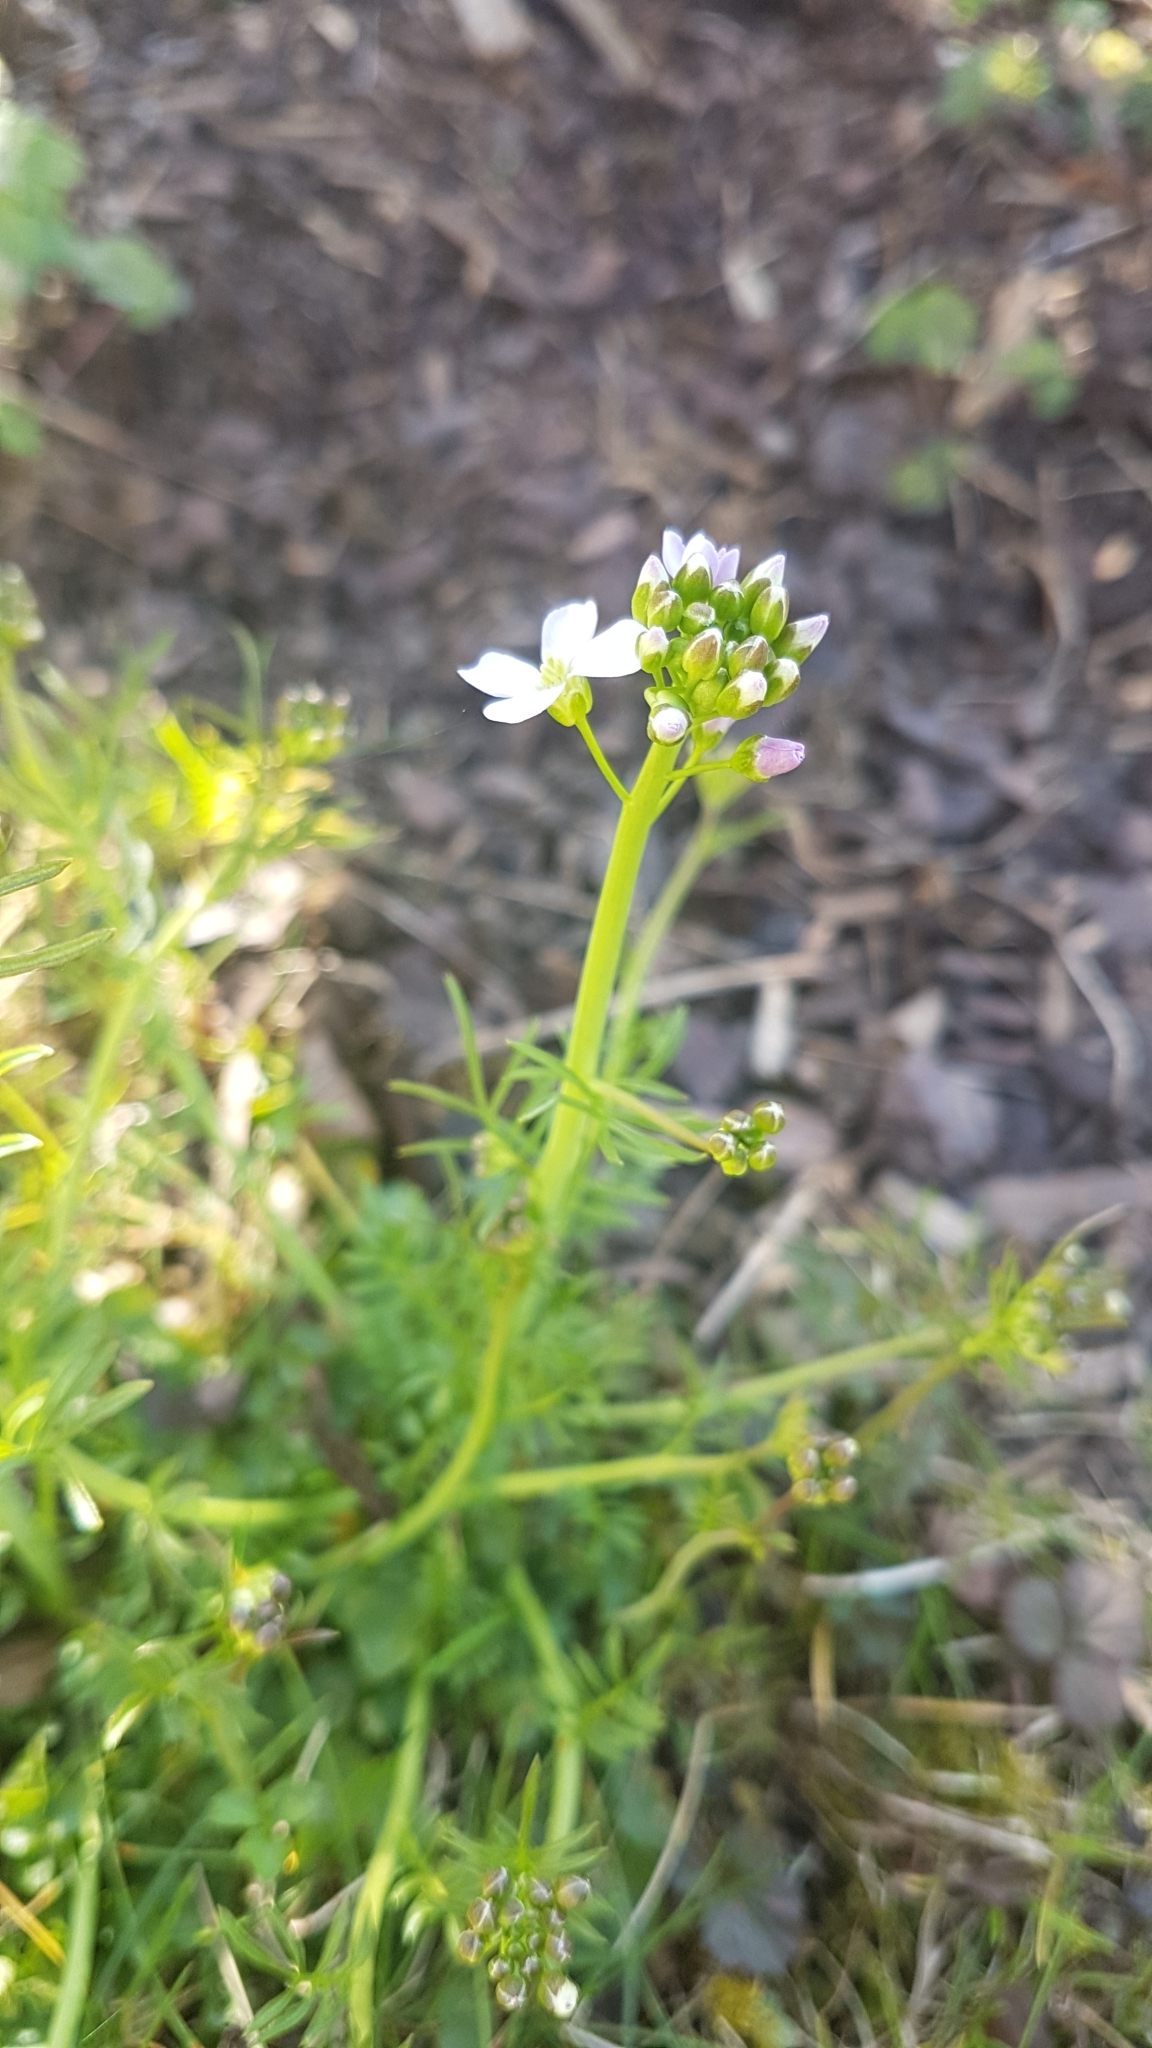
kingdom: Plantae
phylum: Tracheophyta
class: Magnoliopsida
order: Brassicales
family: Brassicaceae
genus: Cardamine
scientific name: Cardamine pratensis
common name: Cuckoo flower
